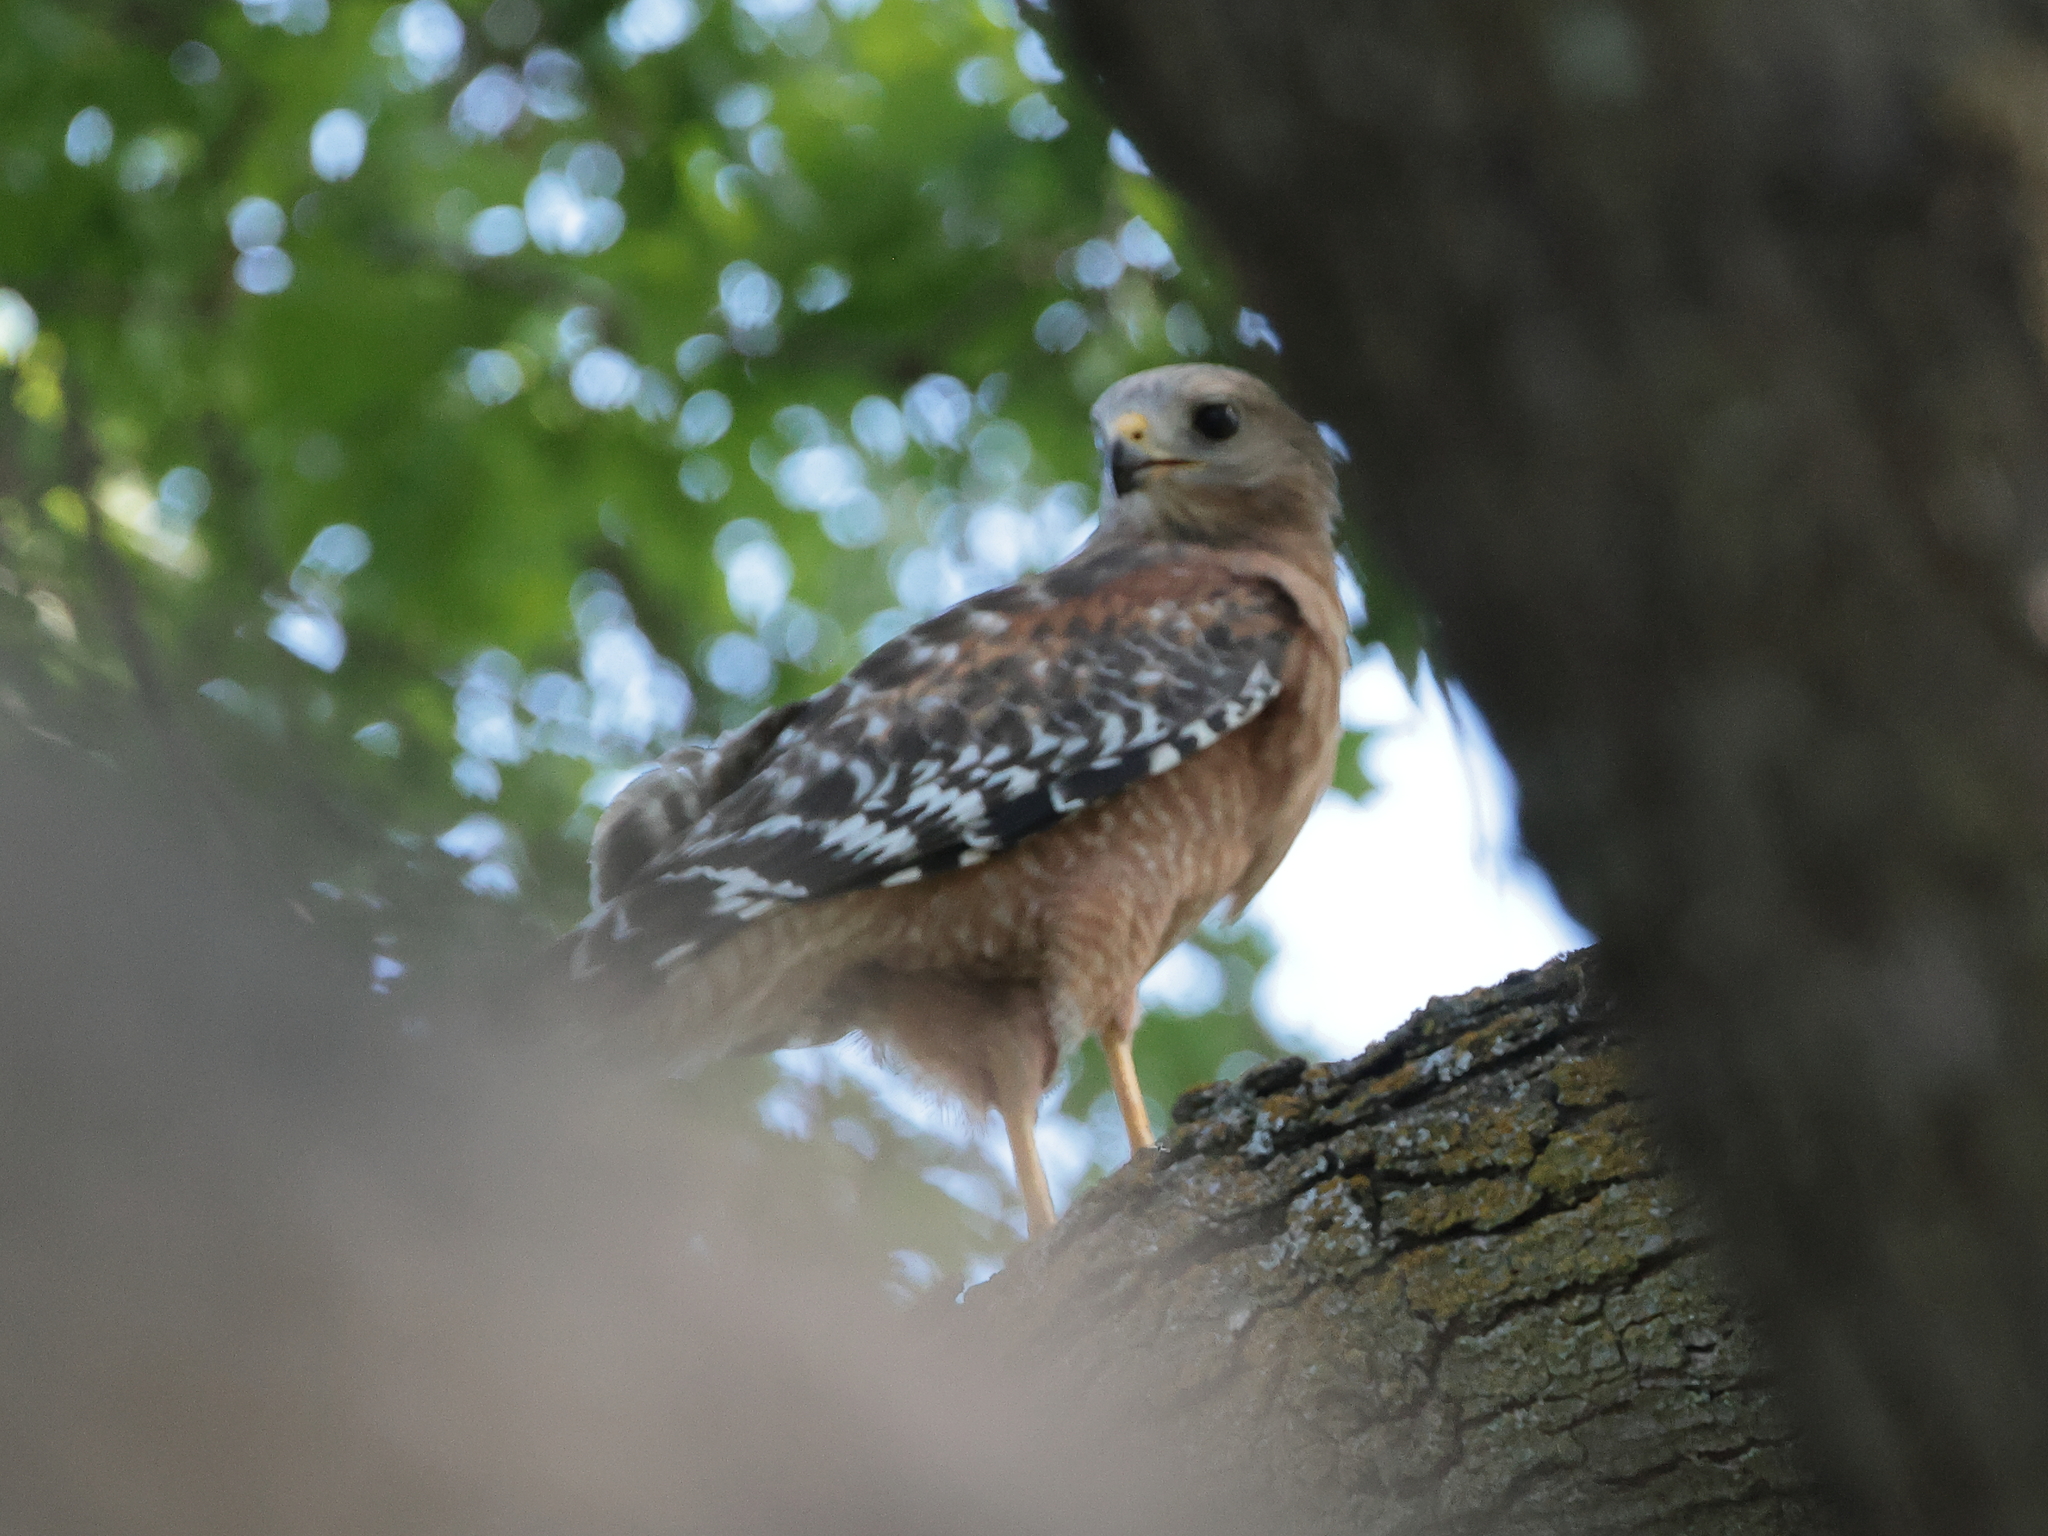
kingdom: Animalia
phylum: Chordata
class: Aves
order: Accipitriformes
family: Accipitridae
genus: Buteo
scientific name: Buteo lineatus
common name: Red-shouldered hawk
